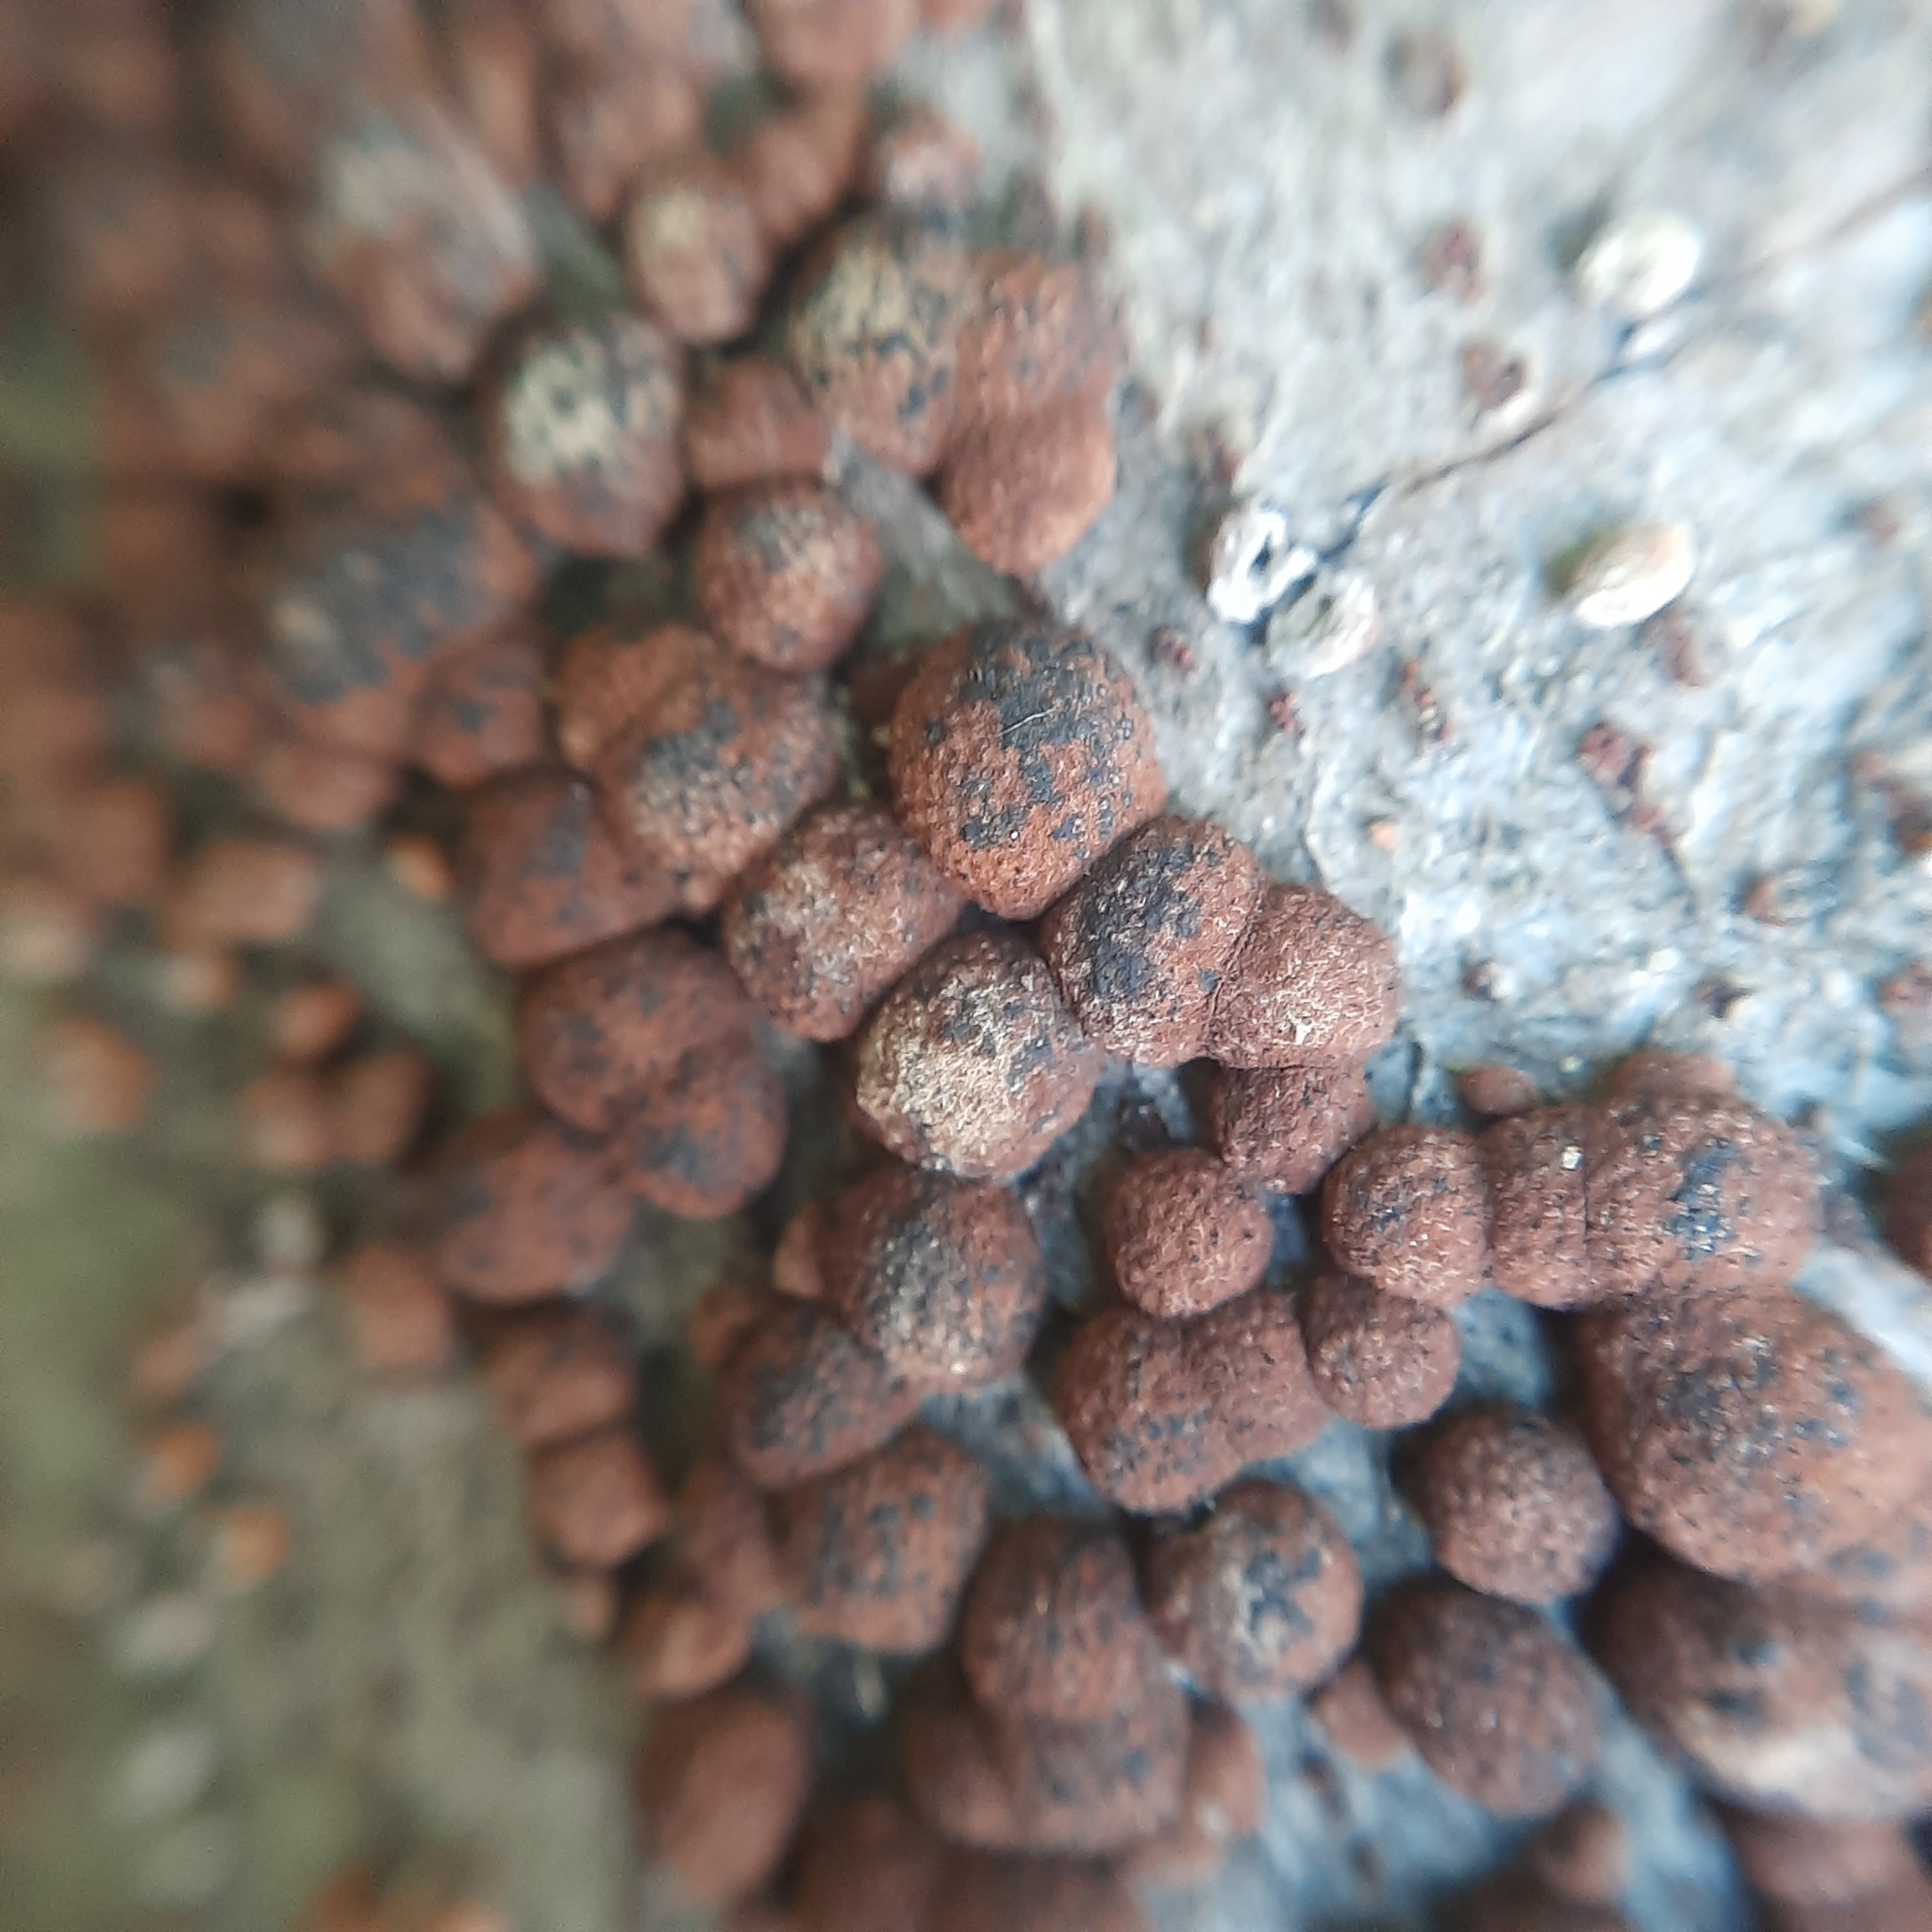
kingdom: Fungi
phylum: Ascomycota
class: Sordariomycetes
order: Xylariales
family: Hypoxylaceae
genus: Hypoxylon
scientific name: Hypoxylon fragiforme
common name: Beech woodwart
